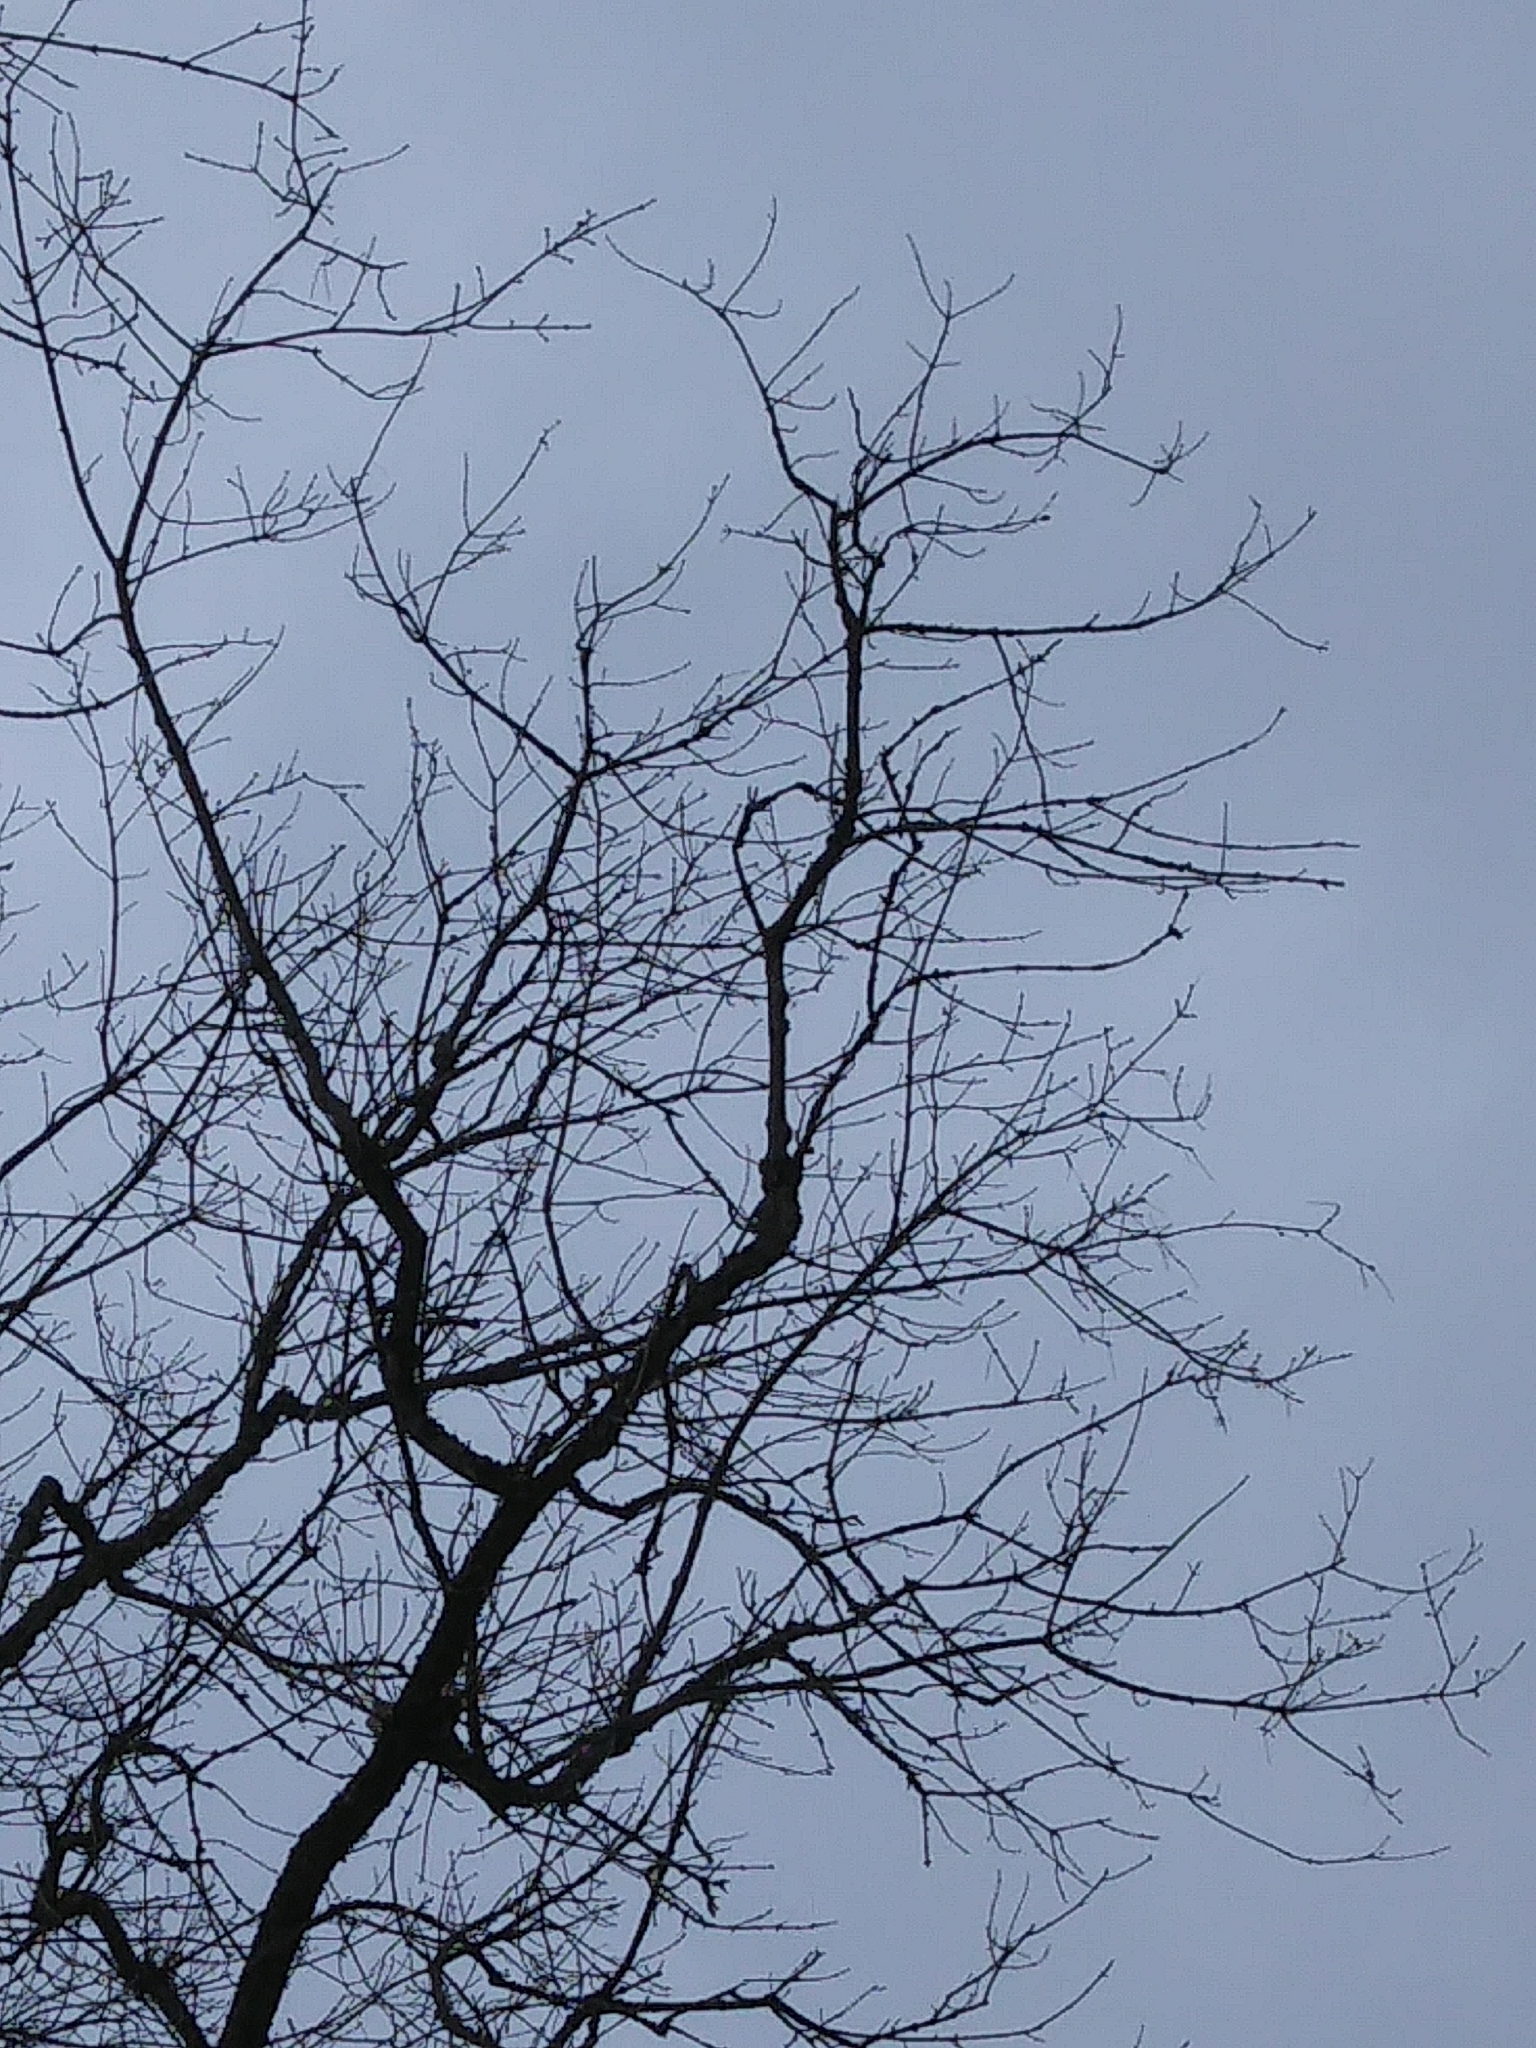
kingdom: Plantae
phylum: Tracheophyta
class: Magnoliopsida
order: Sapindales
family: Sapindaceae
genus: Acer
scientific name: Acer negundo
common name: Ashleaf maple
